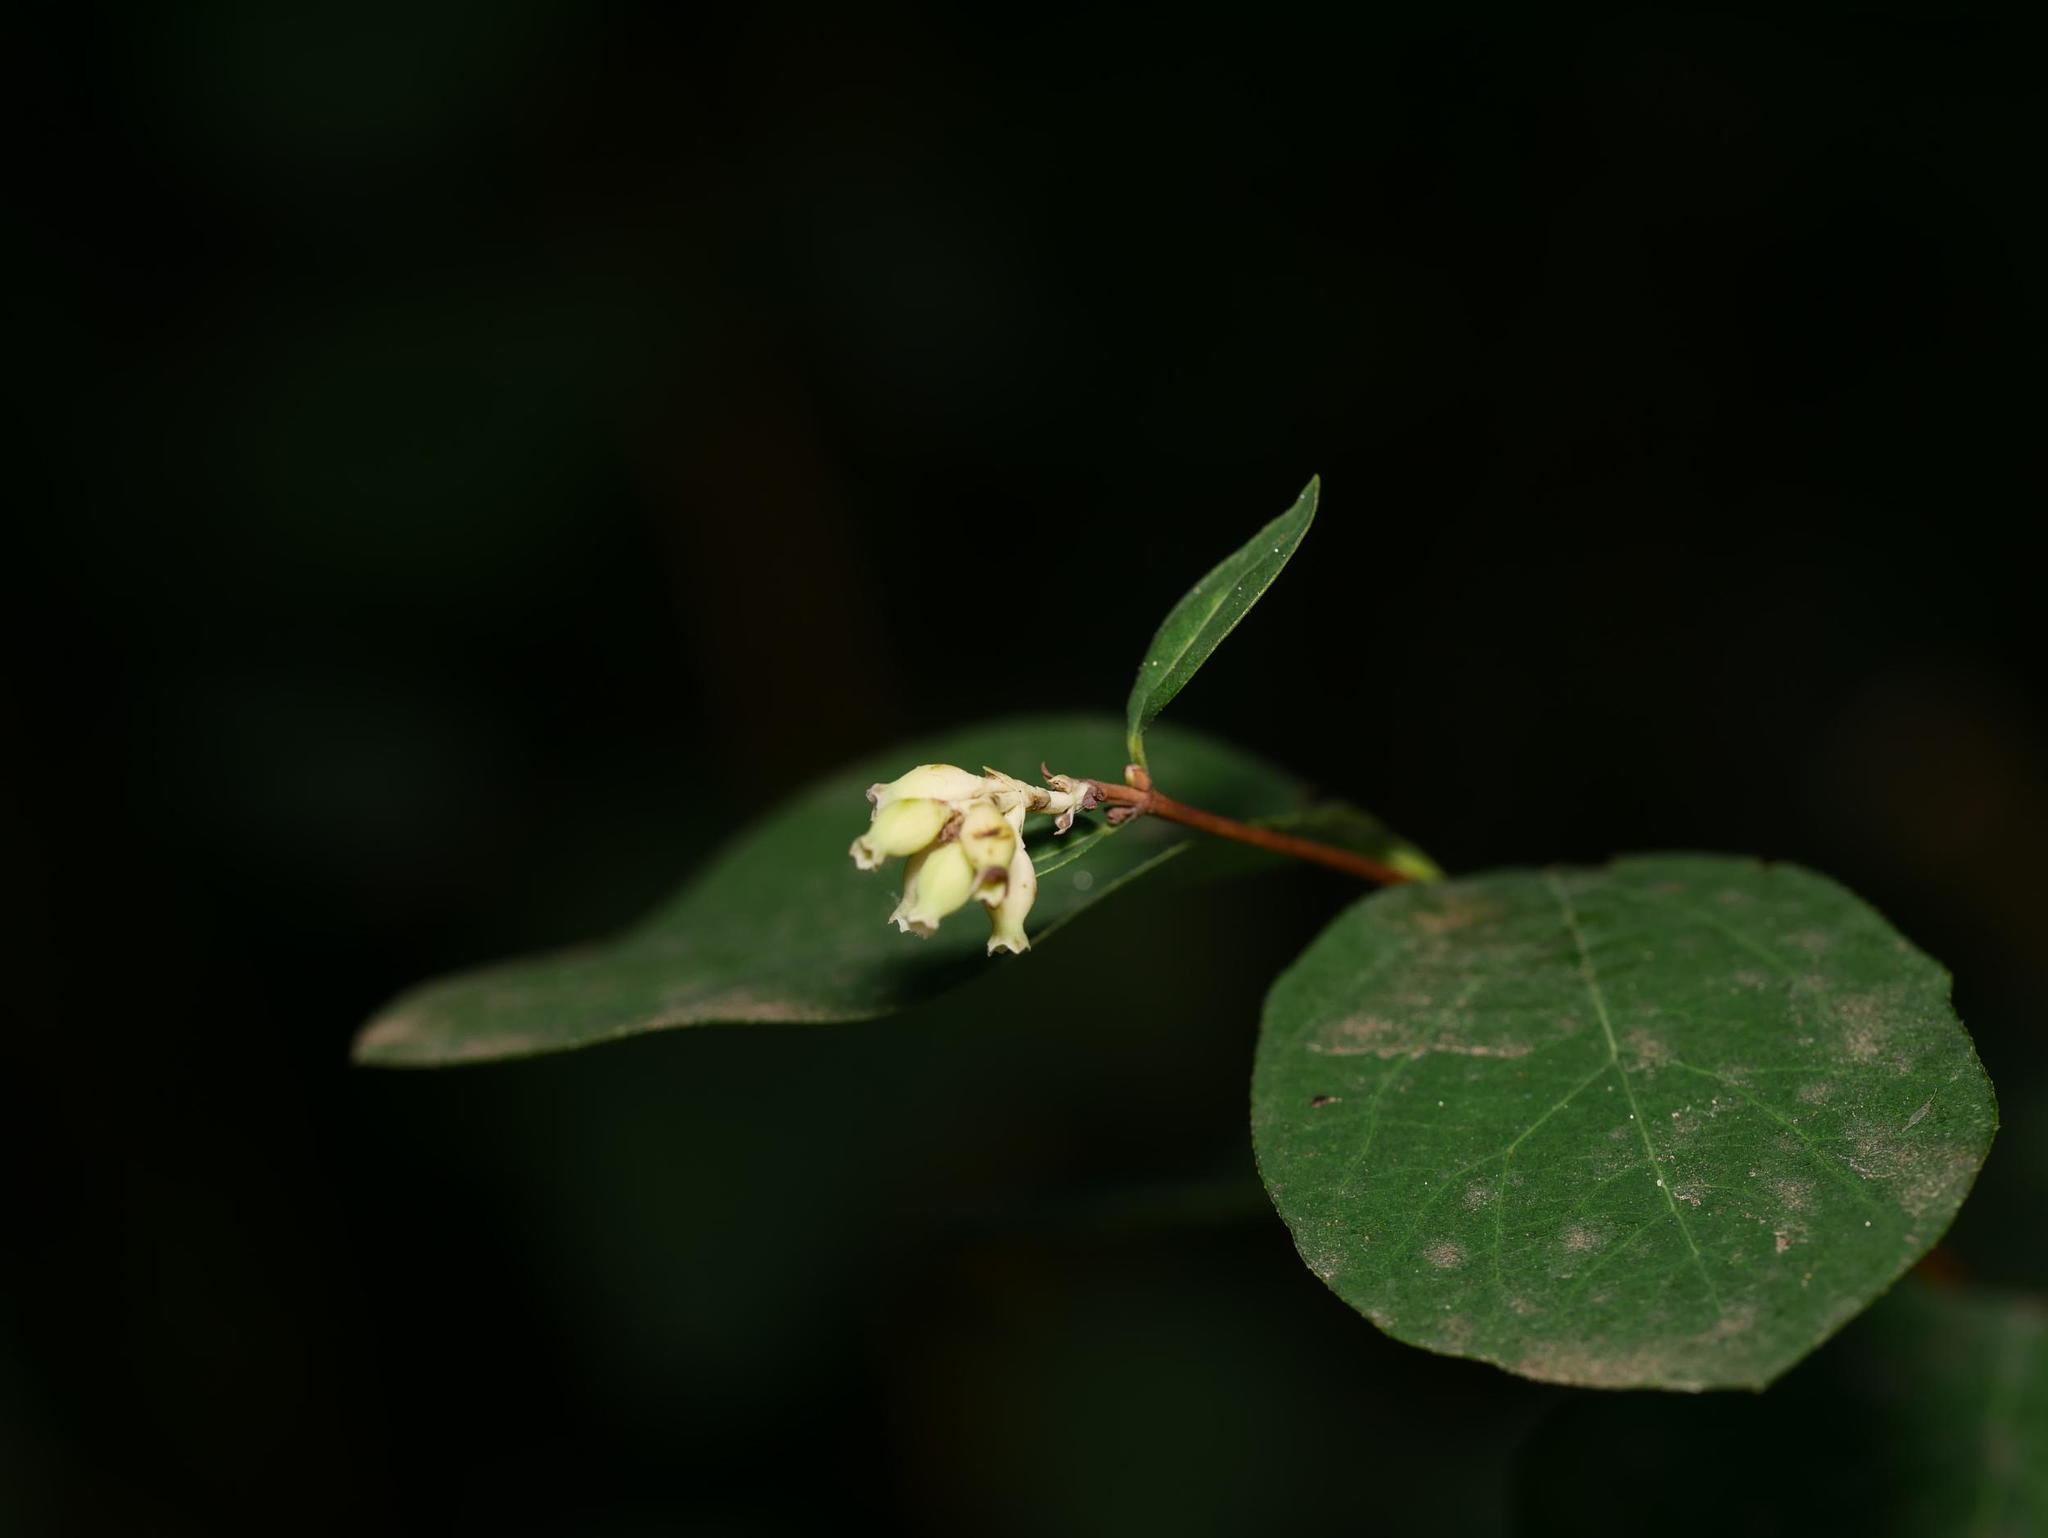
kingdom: Plantae
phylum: Tracheophyta
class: Magnoliopsida
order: Dipsacales
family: Caprifoliaceae
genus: Symphoricarpos
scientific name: Symphoricarpos albus
